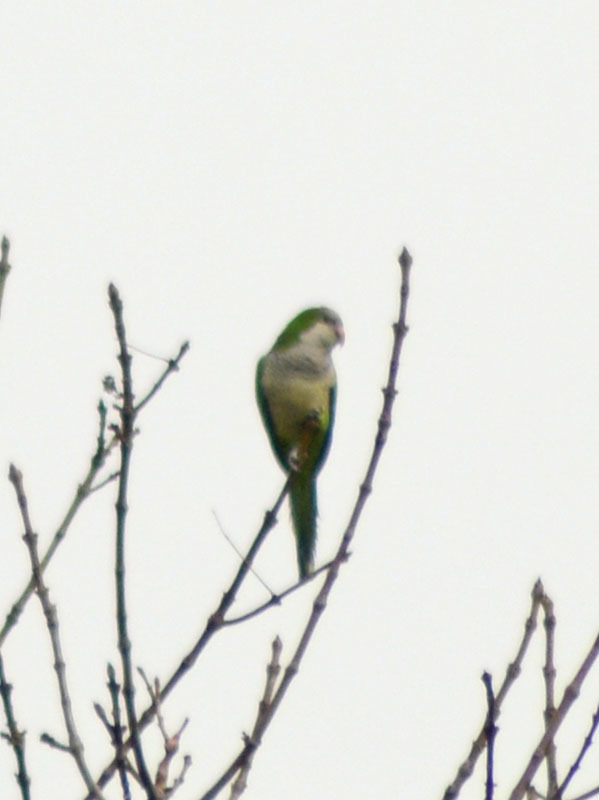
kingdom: Animalia
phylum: Chordata
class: Aves
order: Psittaciformes
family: Psittacidae
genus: Myiopsitta
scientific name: Myiopsitta monachus
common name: Monk parakeet
